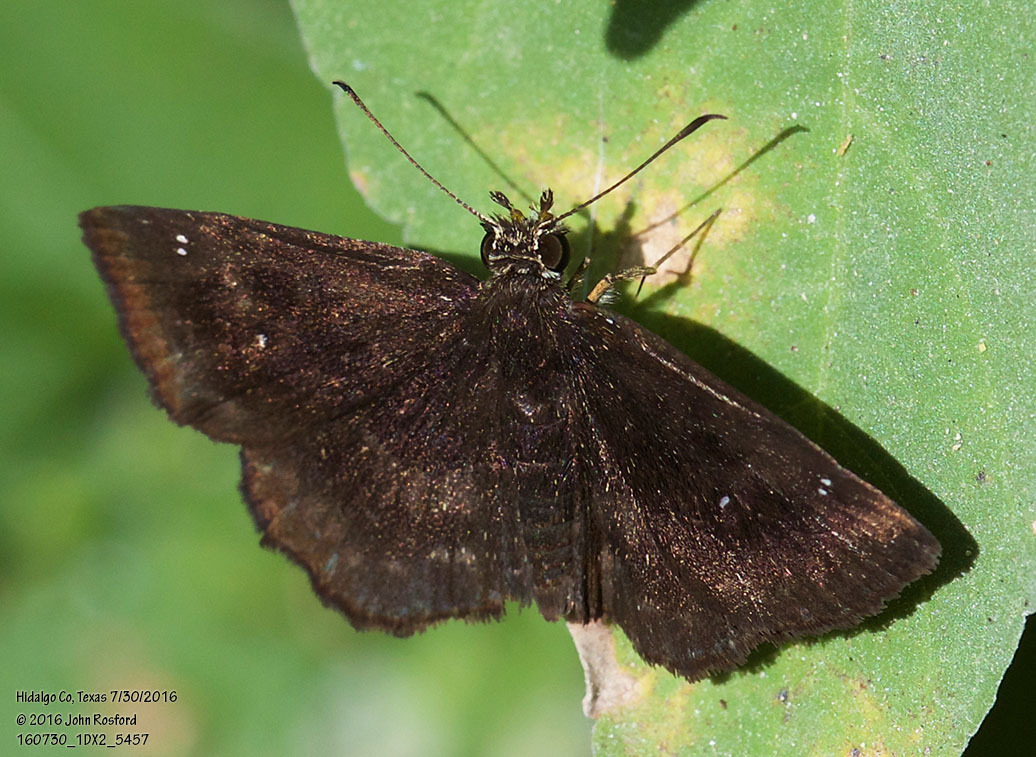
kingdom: Animalia
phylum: Arthropoda
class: Insecta
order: Lepidoptera
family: Hesperiidae
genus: Staphylus
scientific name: Staphylus mazans
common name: Mazans scallopwing
